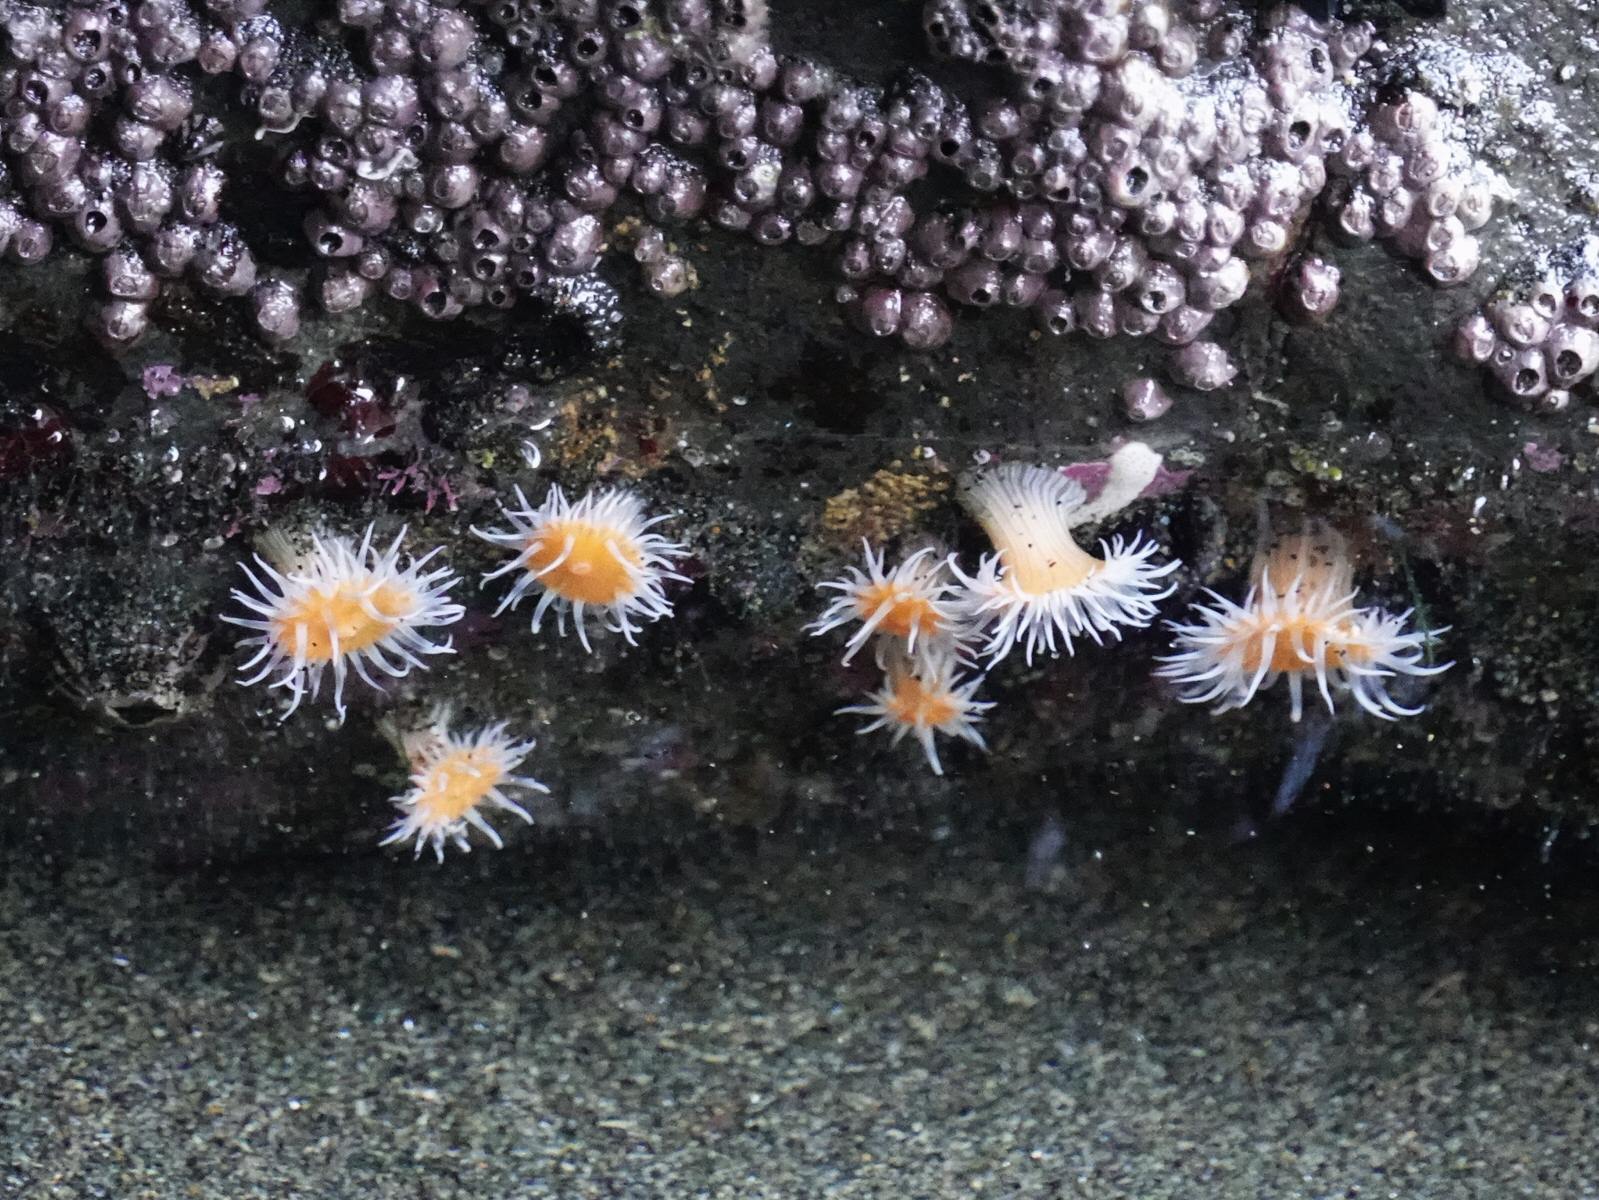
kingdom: Animalia
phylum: Cnidaria
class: Anthozoa
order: Actiniaria
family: Sagartiidae
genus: Anthothoe
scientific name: Anthothoe albocincta
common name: Orange striped anemone
